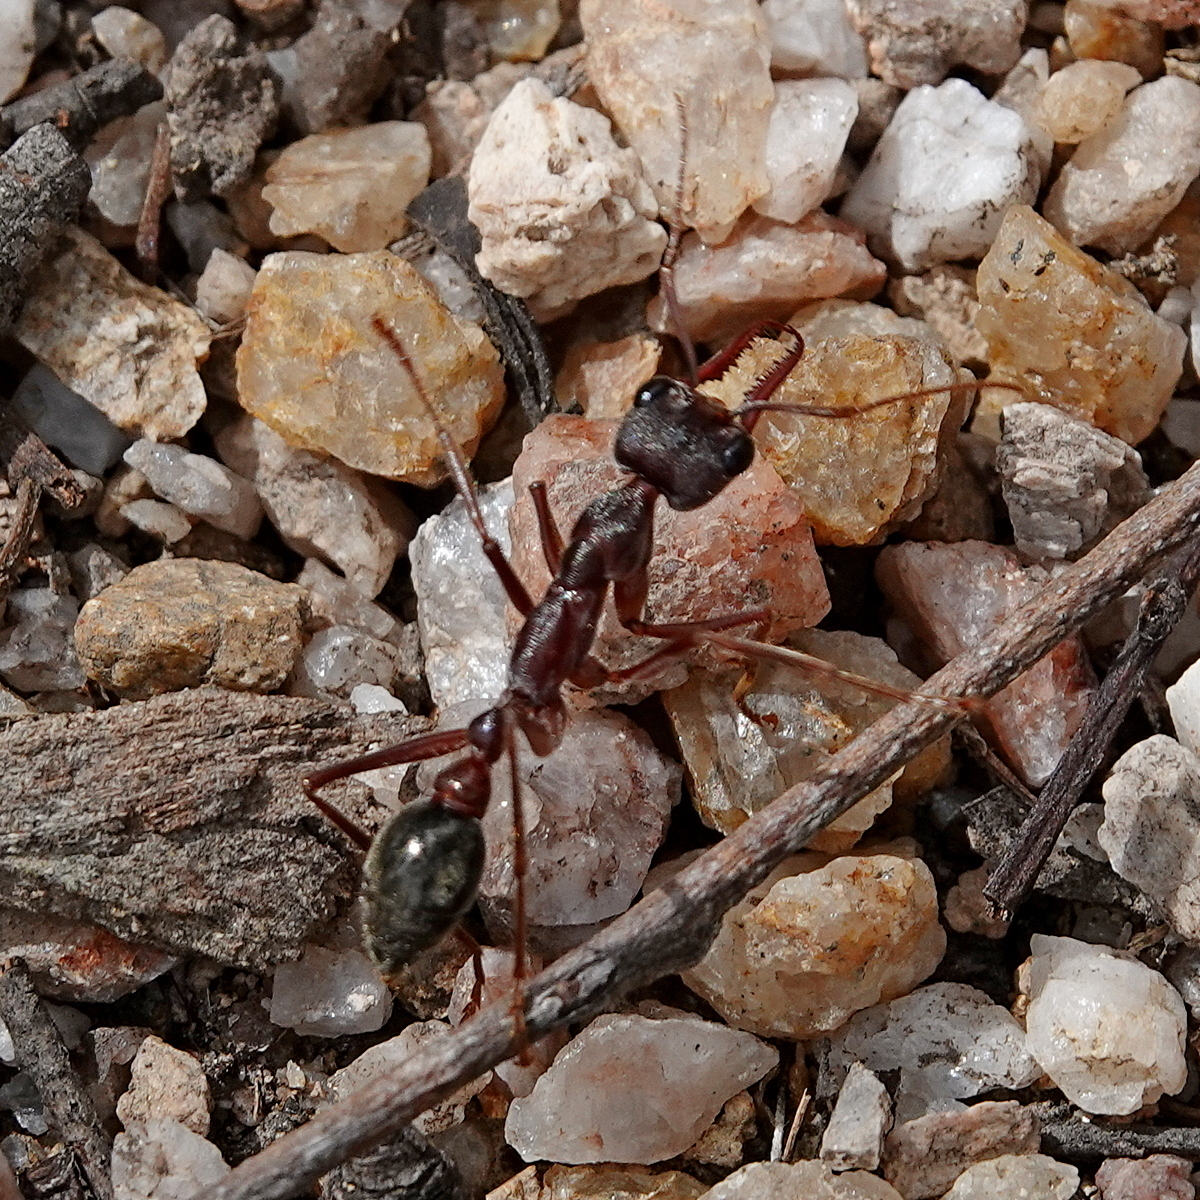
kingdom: Animalia
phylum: Arthropoda
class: Insecta
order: Hymenoptera
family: Formicidae
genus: Myrmecia
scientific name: Myrmecia pyriformis
